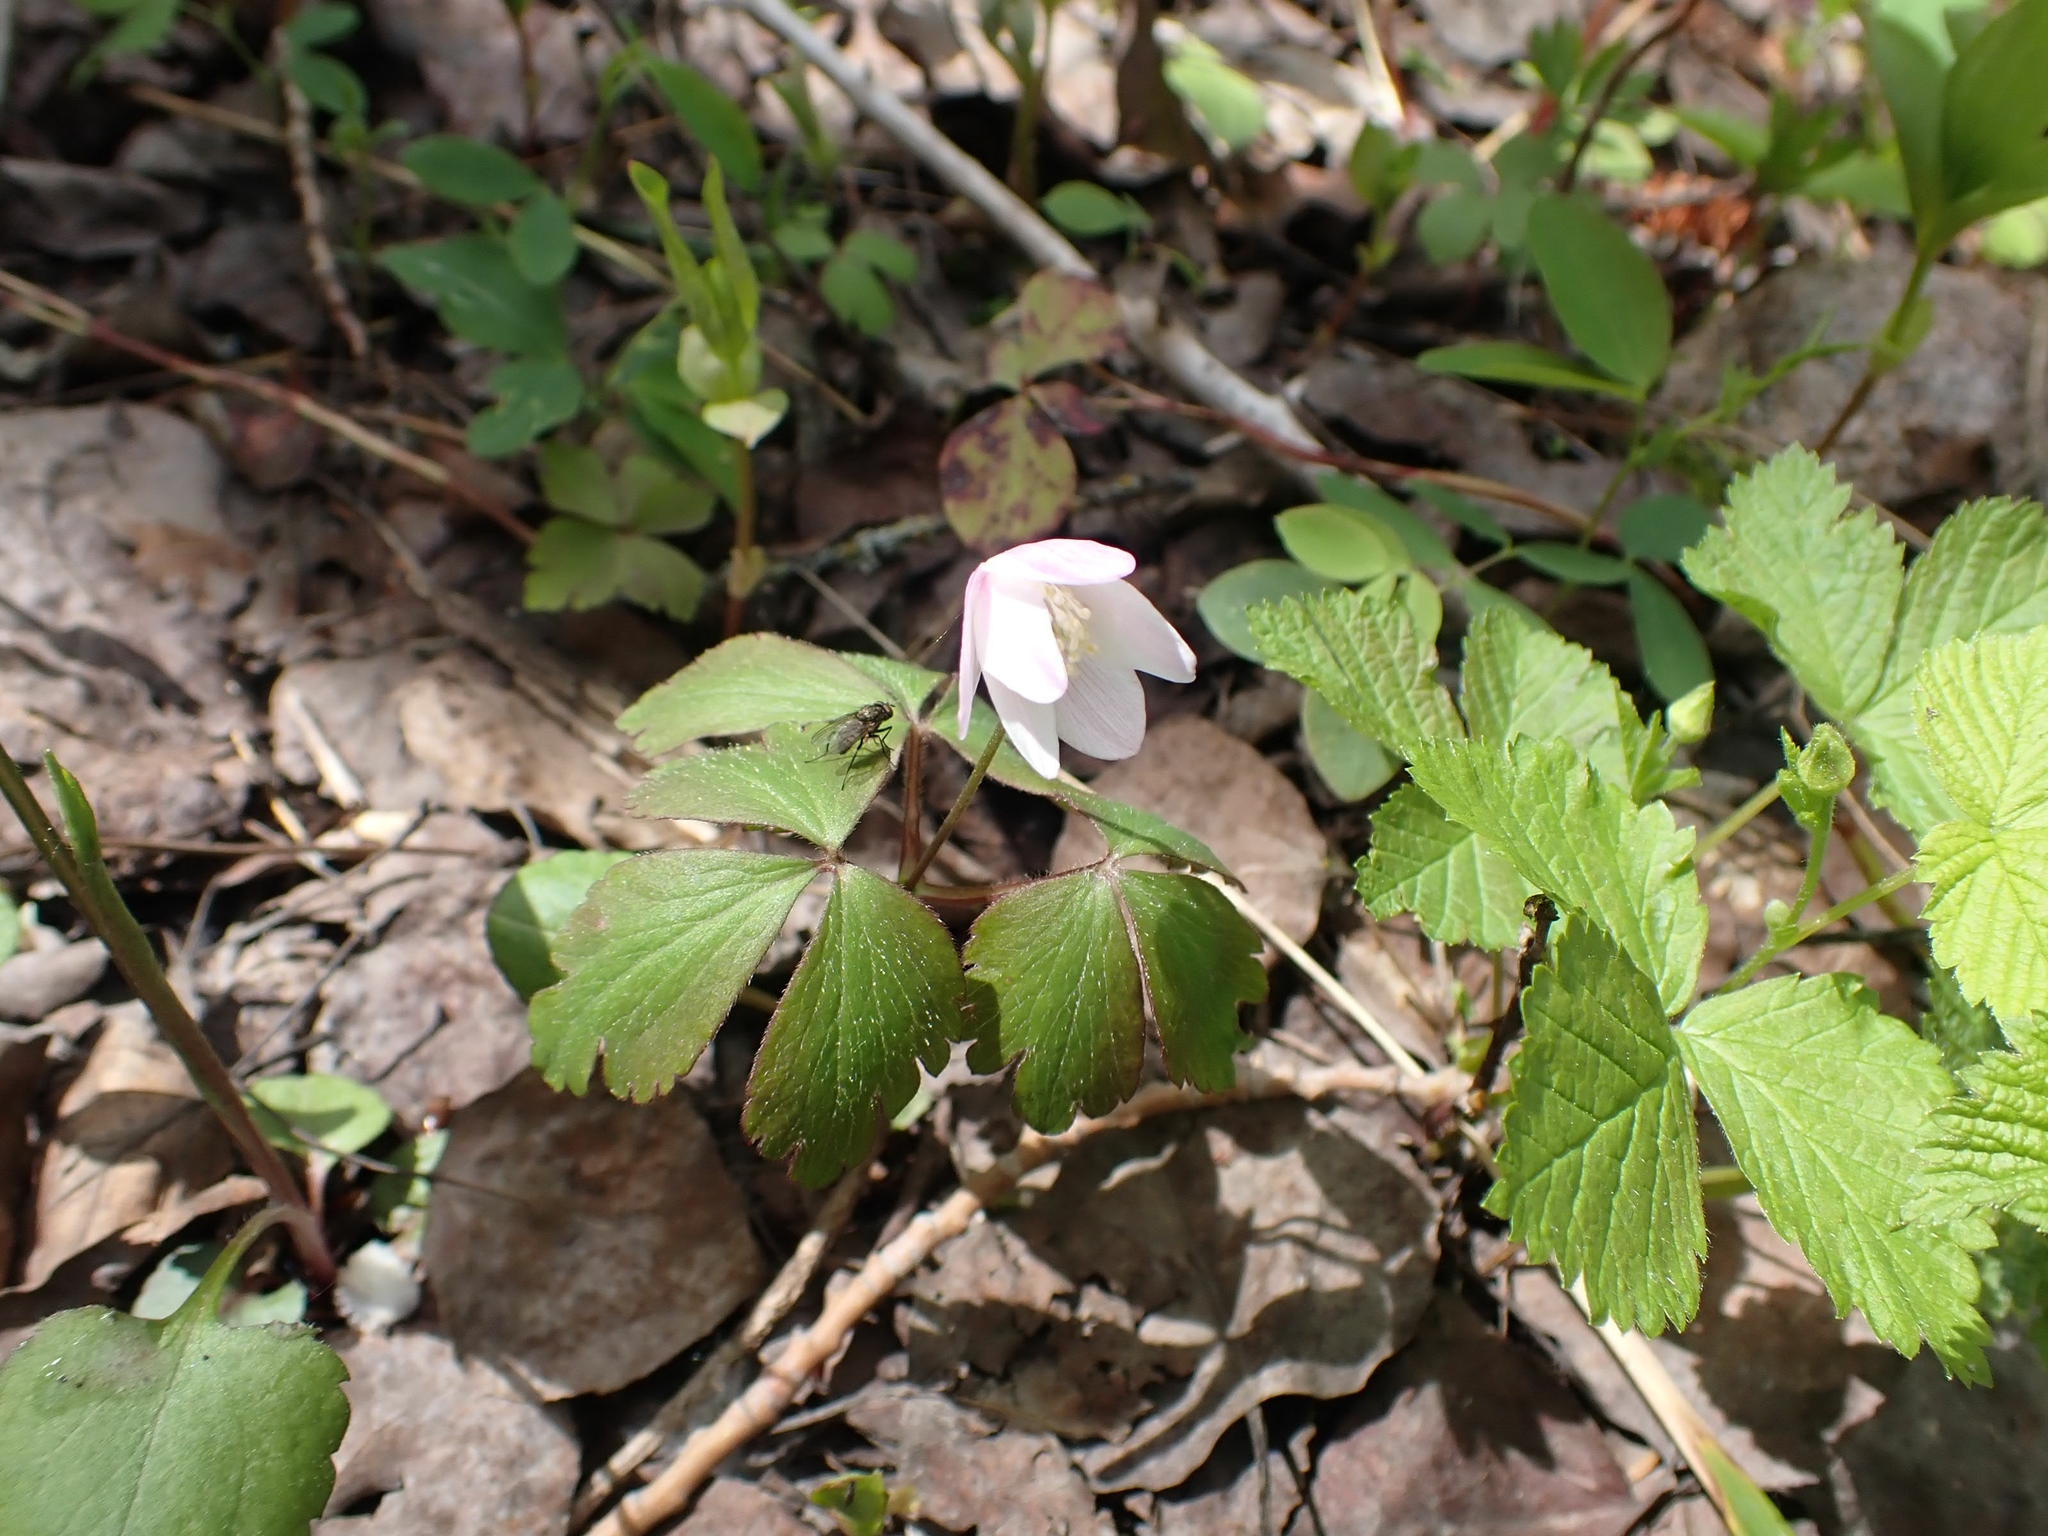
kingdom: Plantae
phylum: Tracheophyta
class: Magnoliopsida
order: Ranunculales
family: Ranunculaceae
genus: Anemone
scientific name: Anemone quinquefolia
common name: Wood anemone
